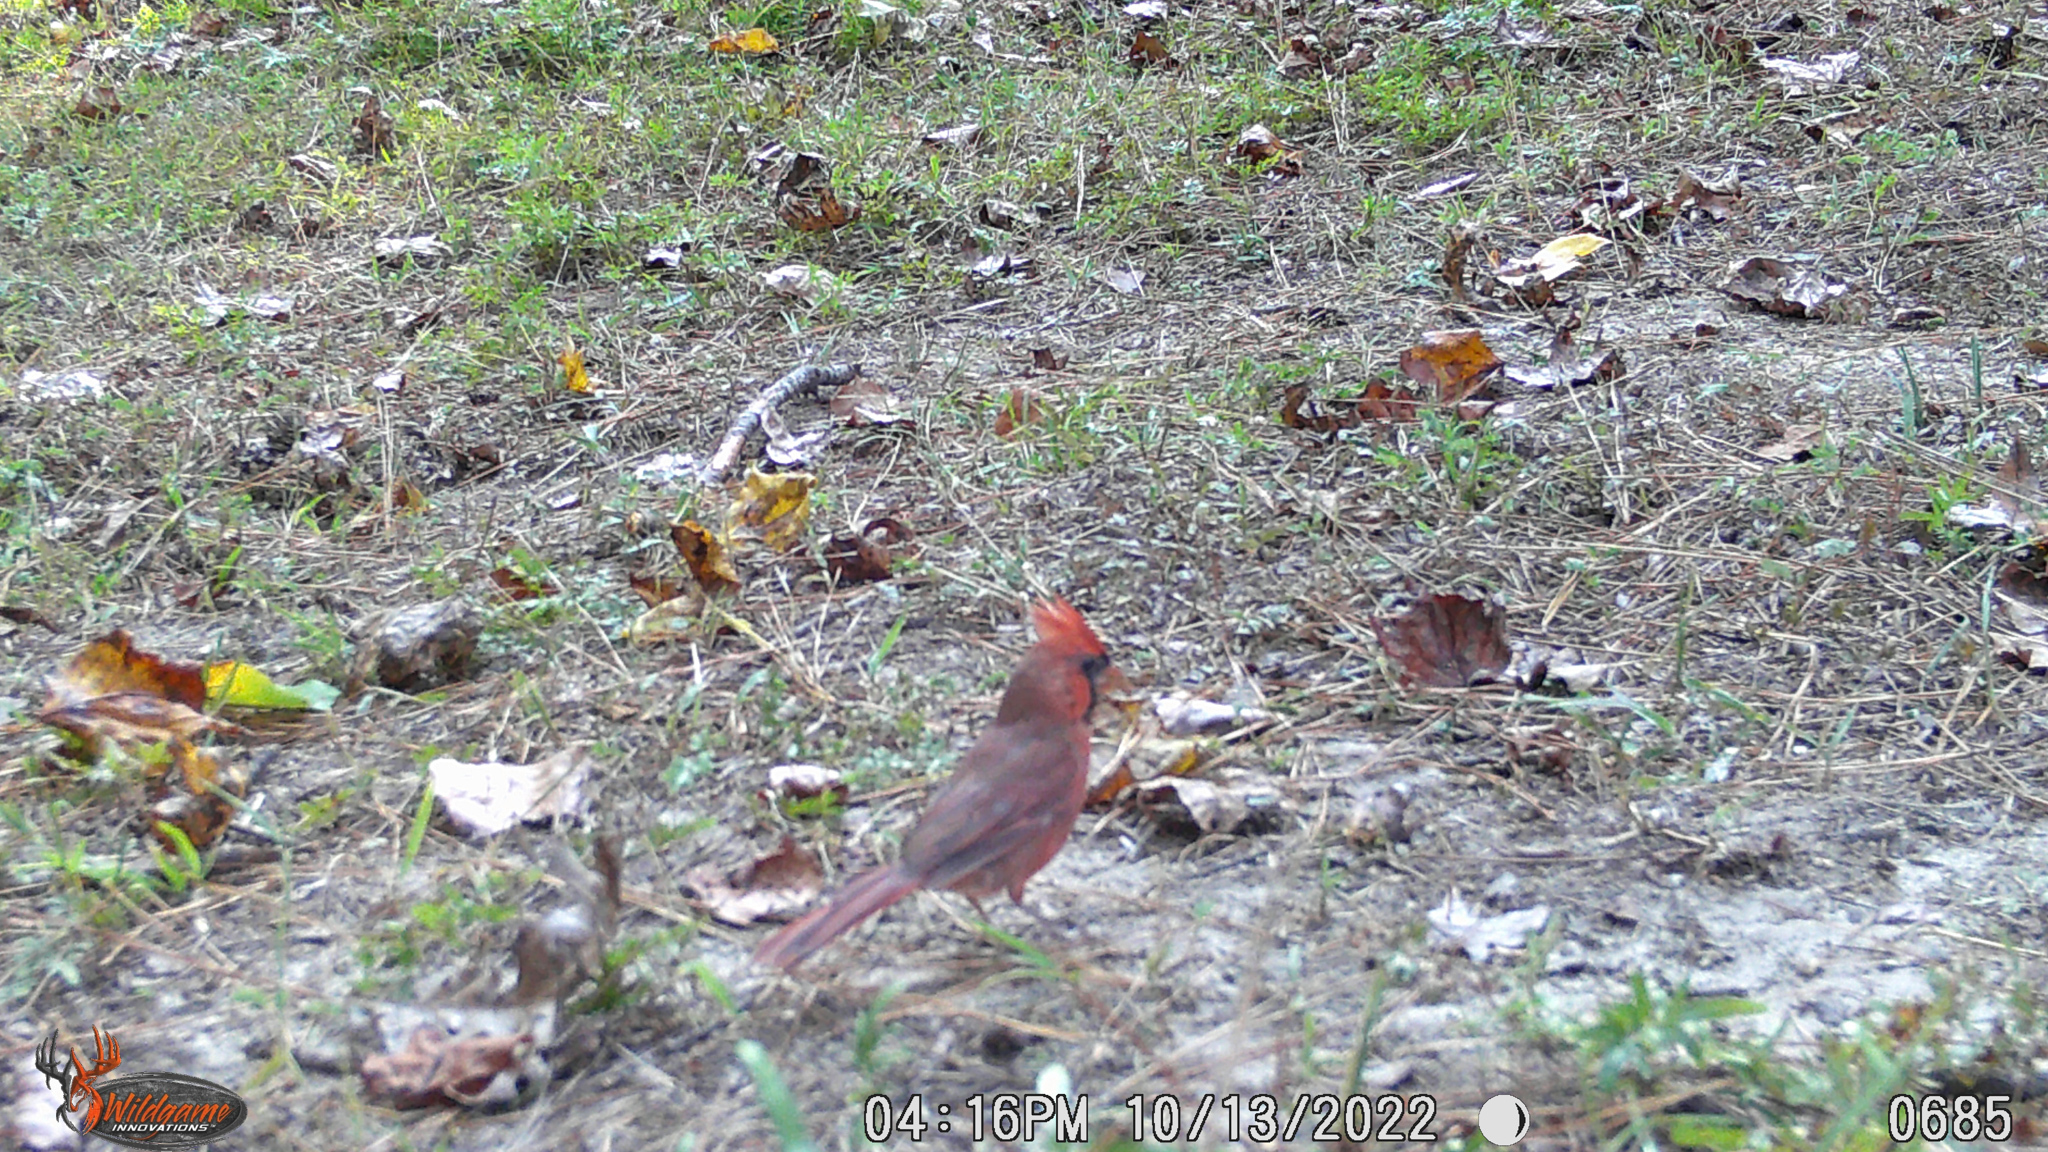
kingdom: Animalia
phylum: Chordata
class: Aves
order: Passeriformes
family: Cardinalidae
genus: Cardinalis
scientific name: Cardinalis cardinalis
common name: Northern cardinal
